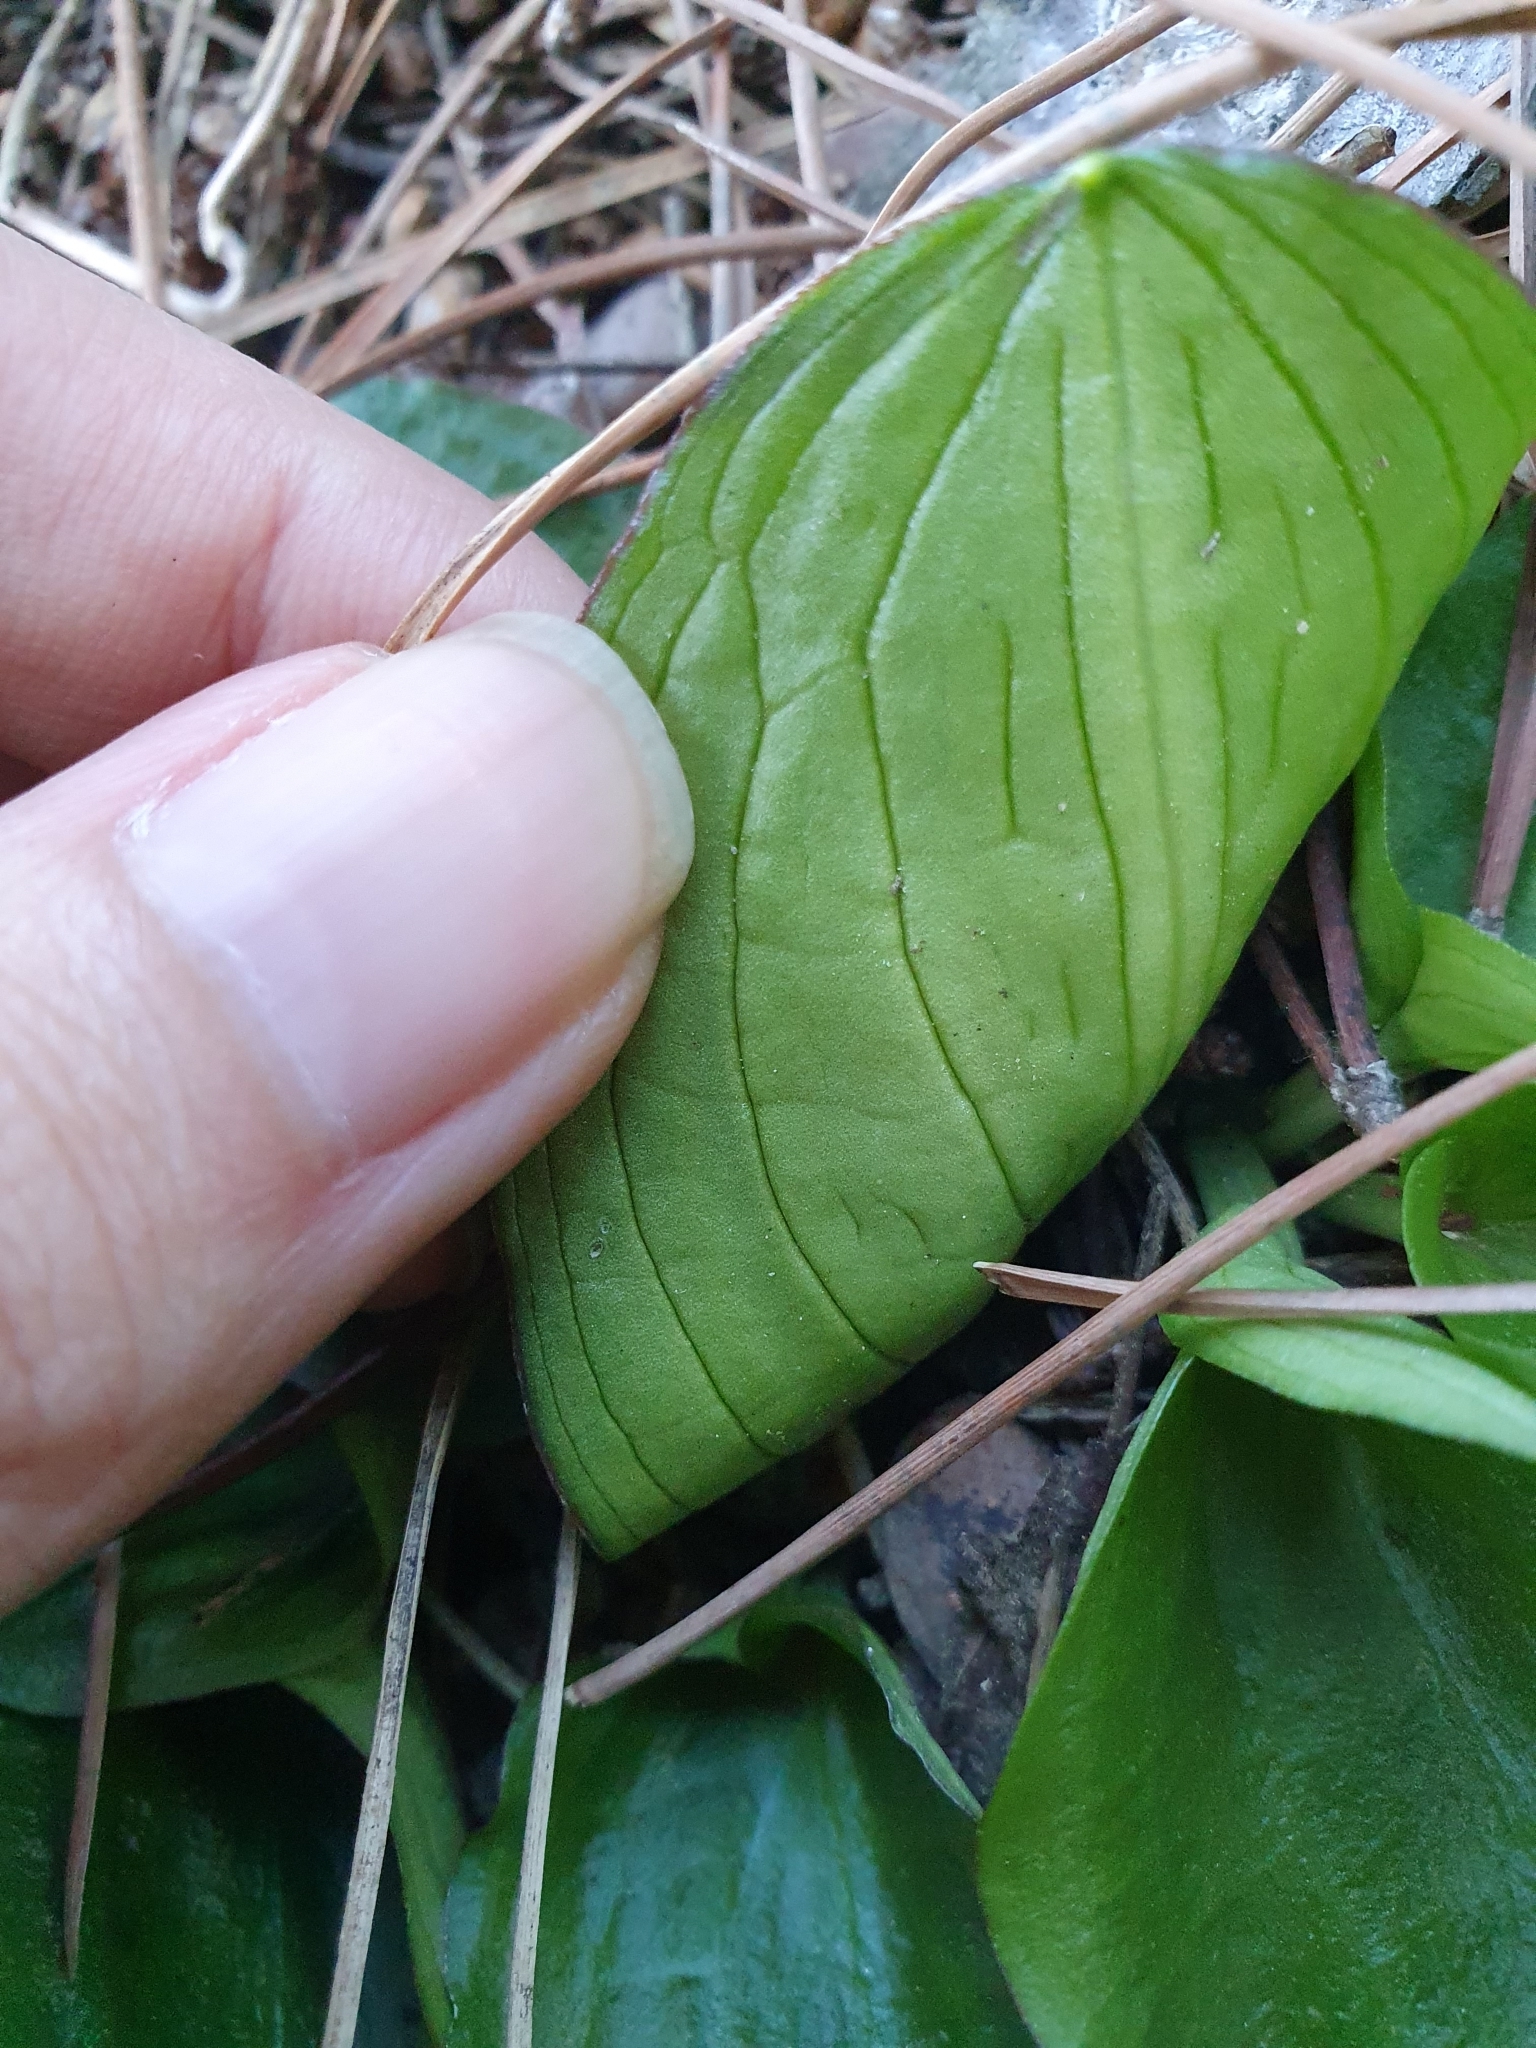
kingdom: Plantae
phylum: Tracheophyta
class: Liliopsida
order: Alismatales
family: Araceae
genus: Ambrosina
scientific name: Ambrosina bassii
